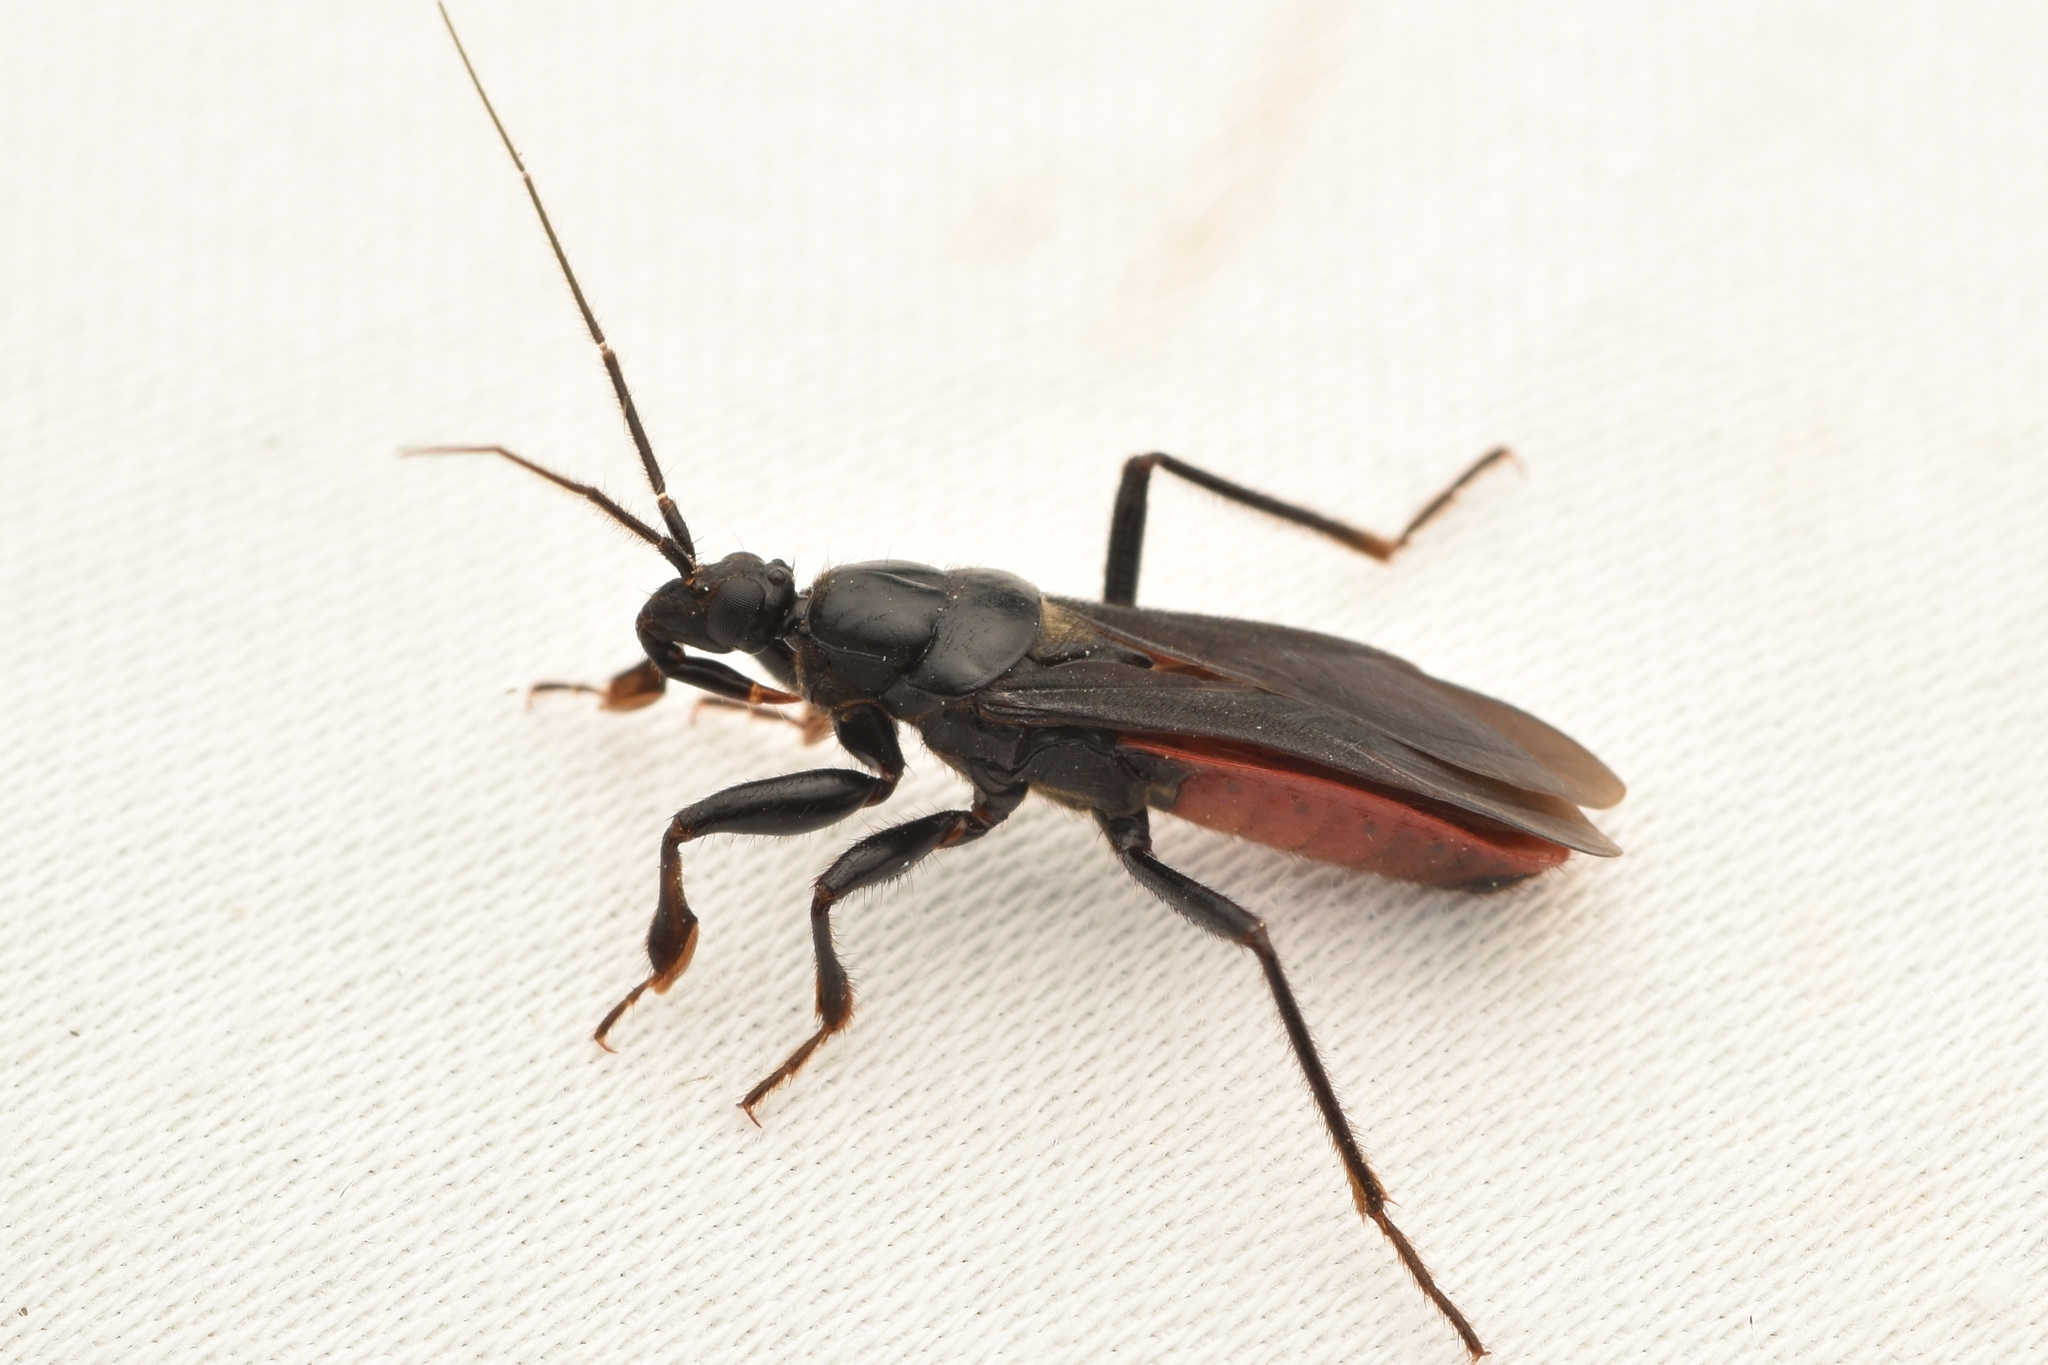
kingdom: Animalia
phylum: Arthropoda
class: Insecta
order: Hemiptera
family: Reduviidae
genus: Melanolestes
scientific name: Melanolestes picipes
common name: Assassin bug
